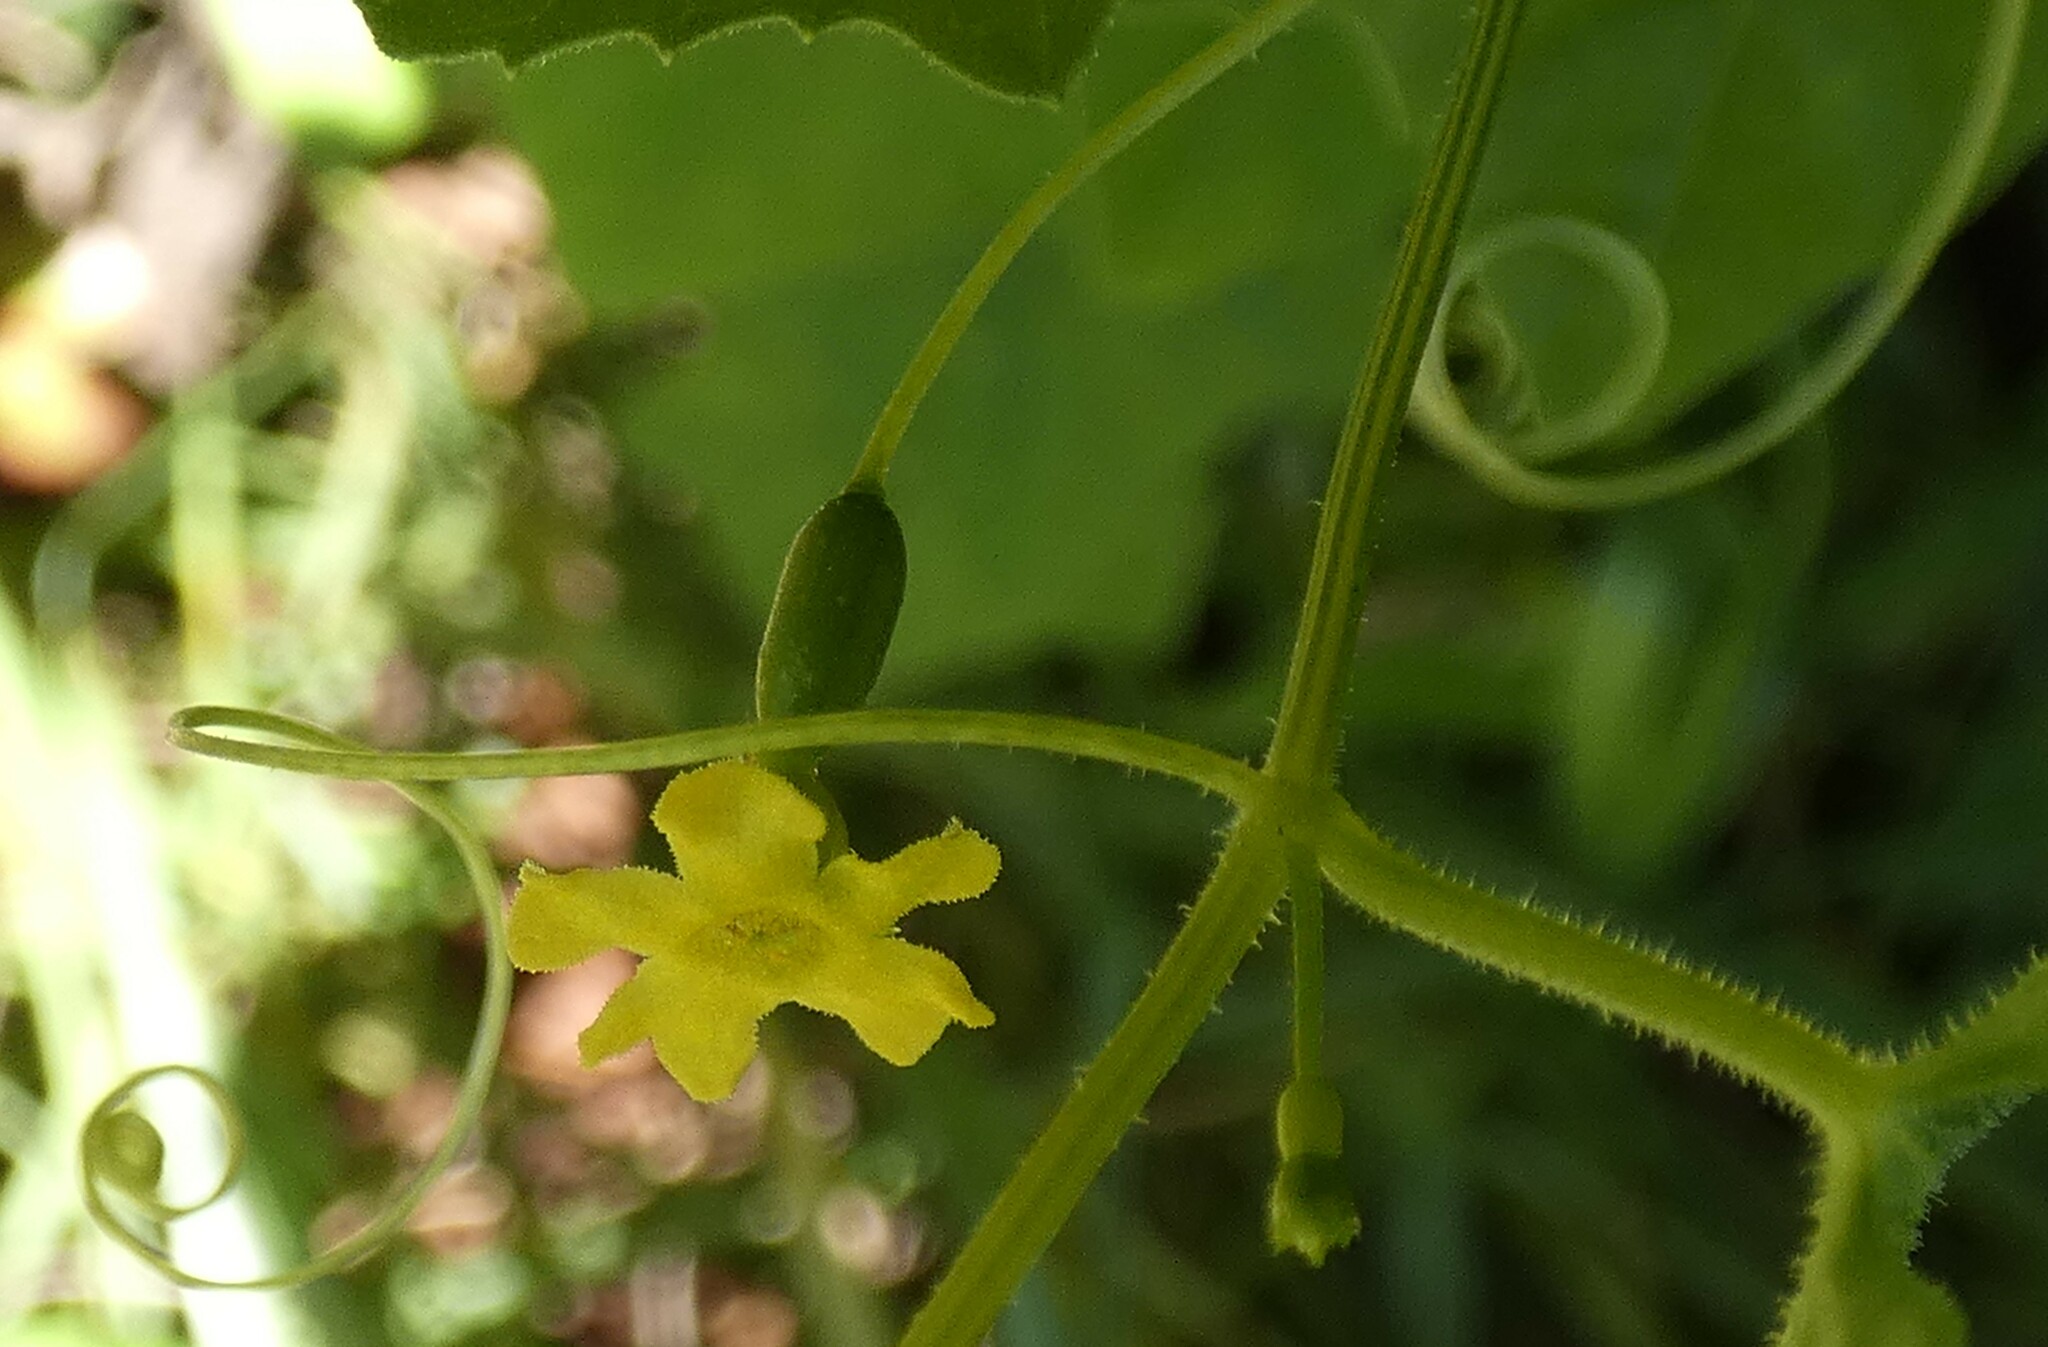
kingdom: Plantae
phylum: Tracheophyta
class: Magnoliopsida
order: Cucurbitales
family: Cucurbitaceae
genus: Melothria
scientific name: Melothria pendula
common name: Creeping-cucumber
